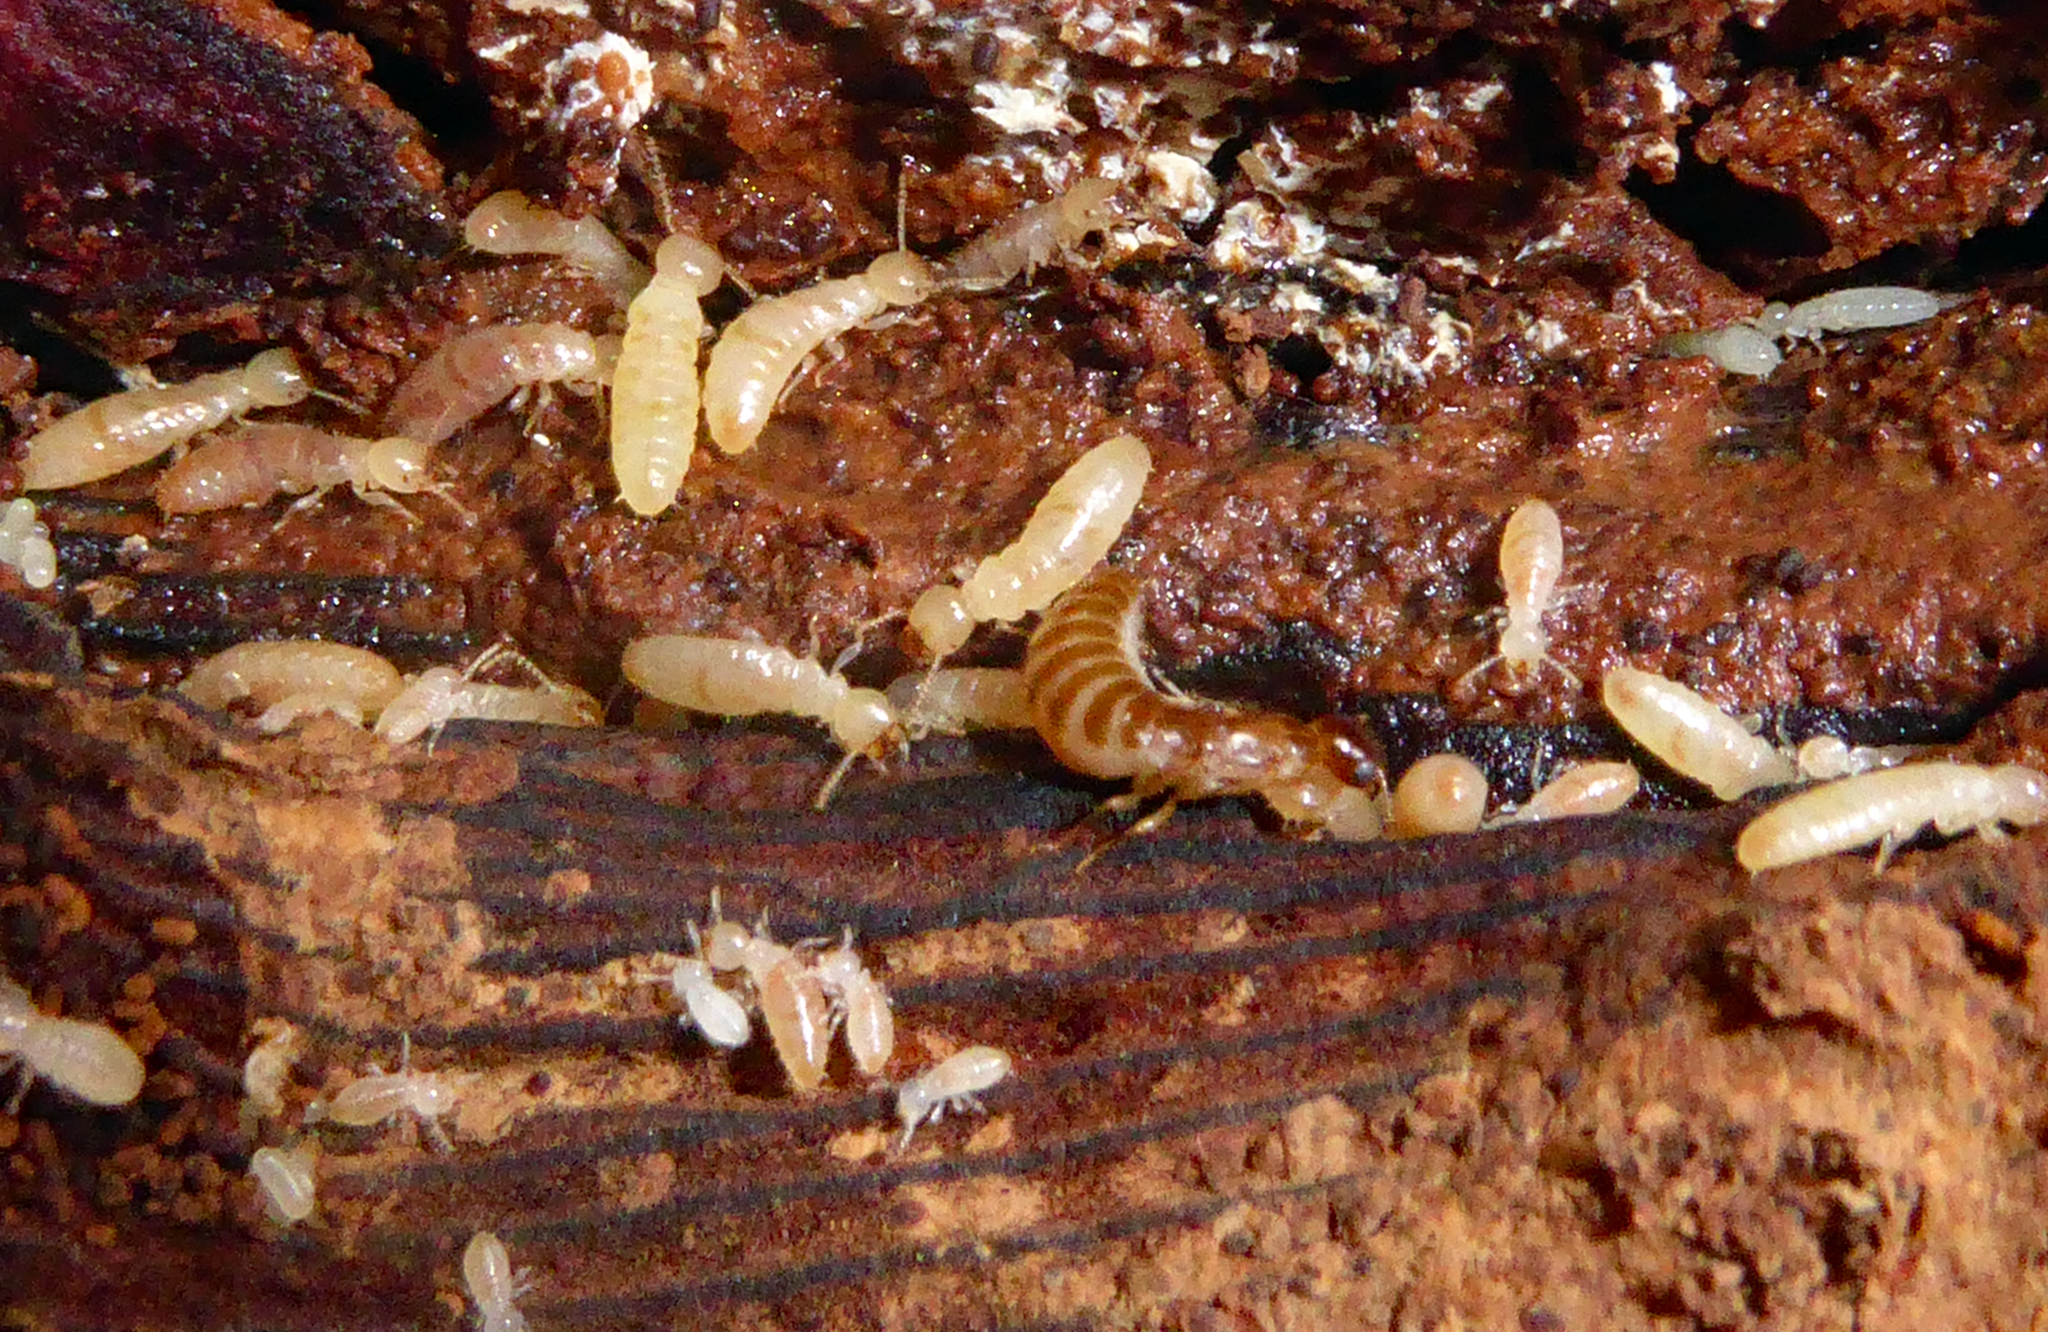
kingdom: Animalia
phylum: Arthropoda
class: Insecta
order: Blattodea
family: Stolotermitidae
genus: Stolotermes
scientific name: Stolotermes ruficeps
